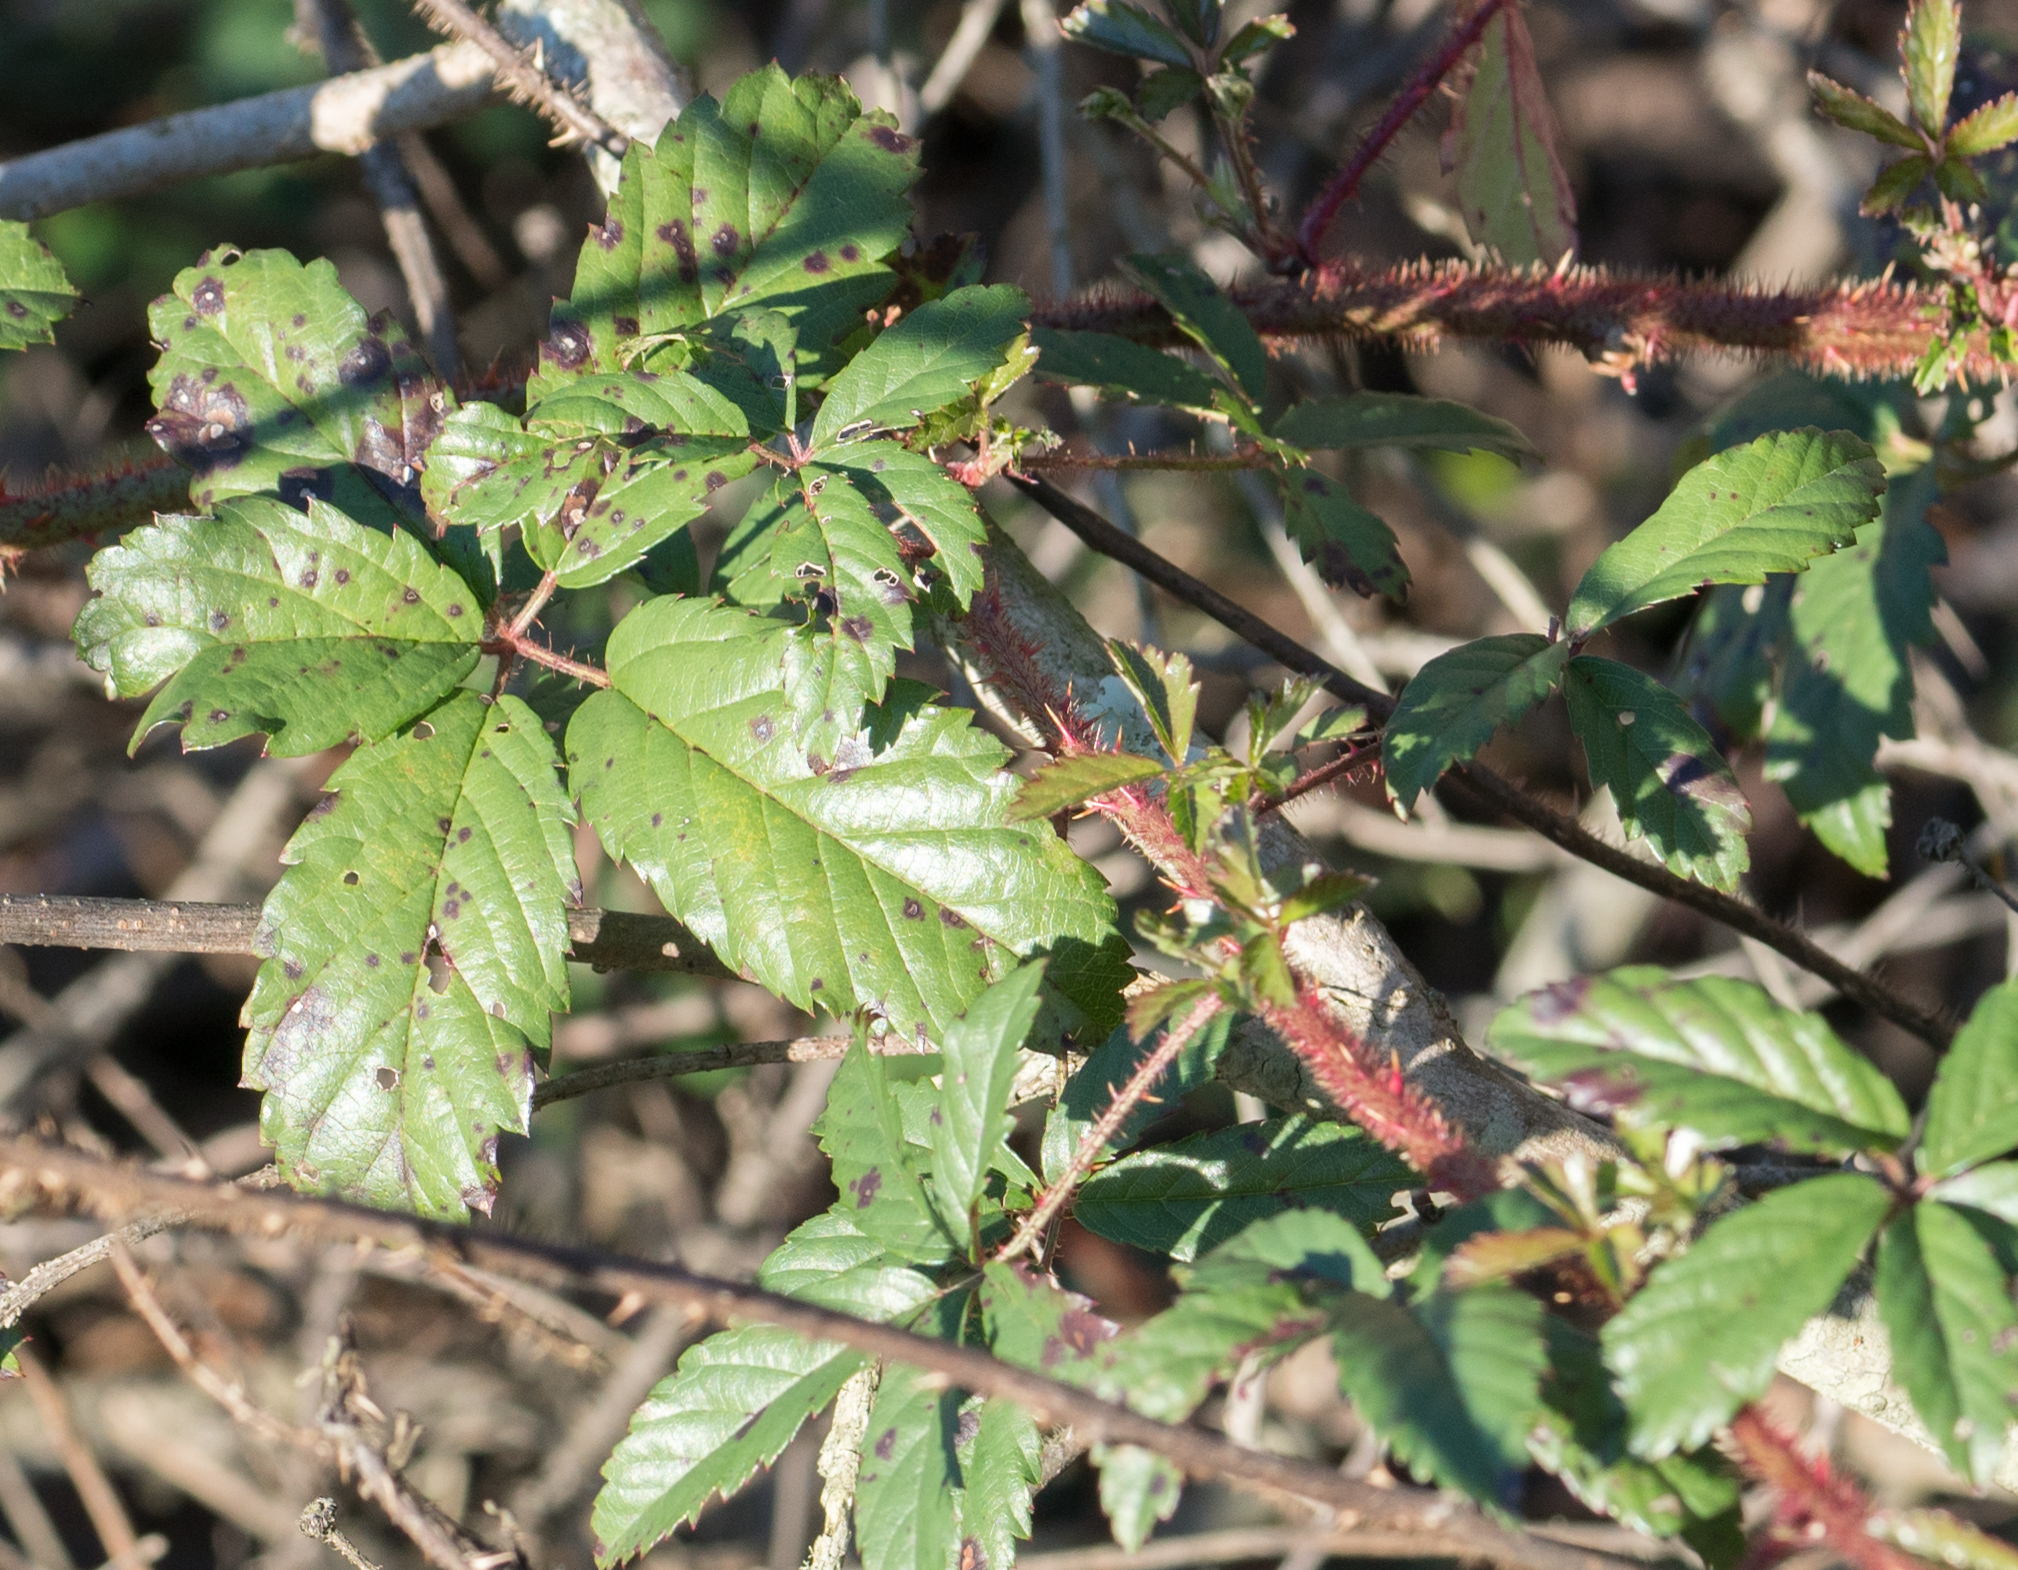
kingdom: Plantae
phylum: Tracheophyta
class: Magnoliopsida
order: Rosales
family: Rosaceae
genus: Rubus
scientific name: Rubus trivialis
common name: Southern dewberry
